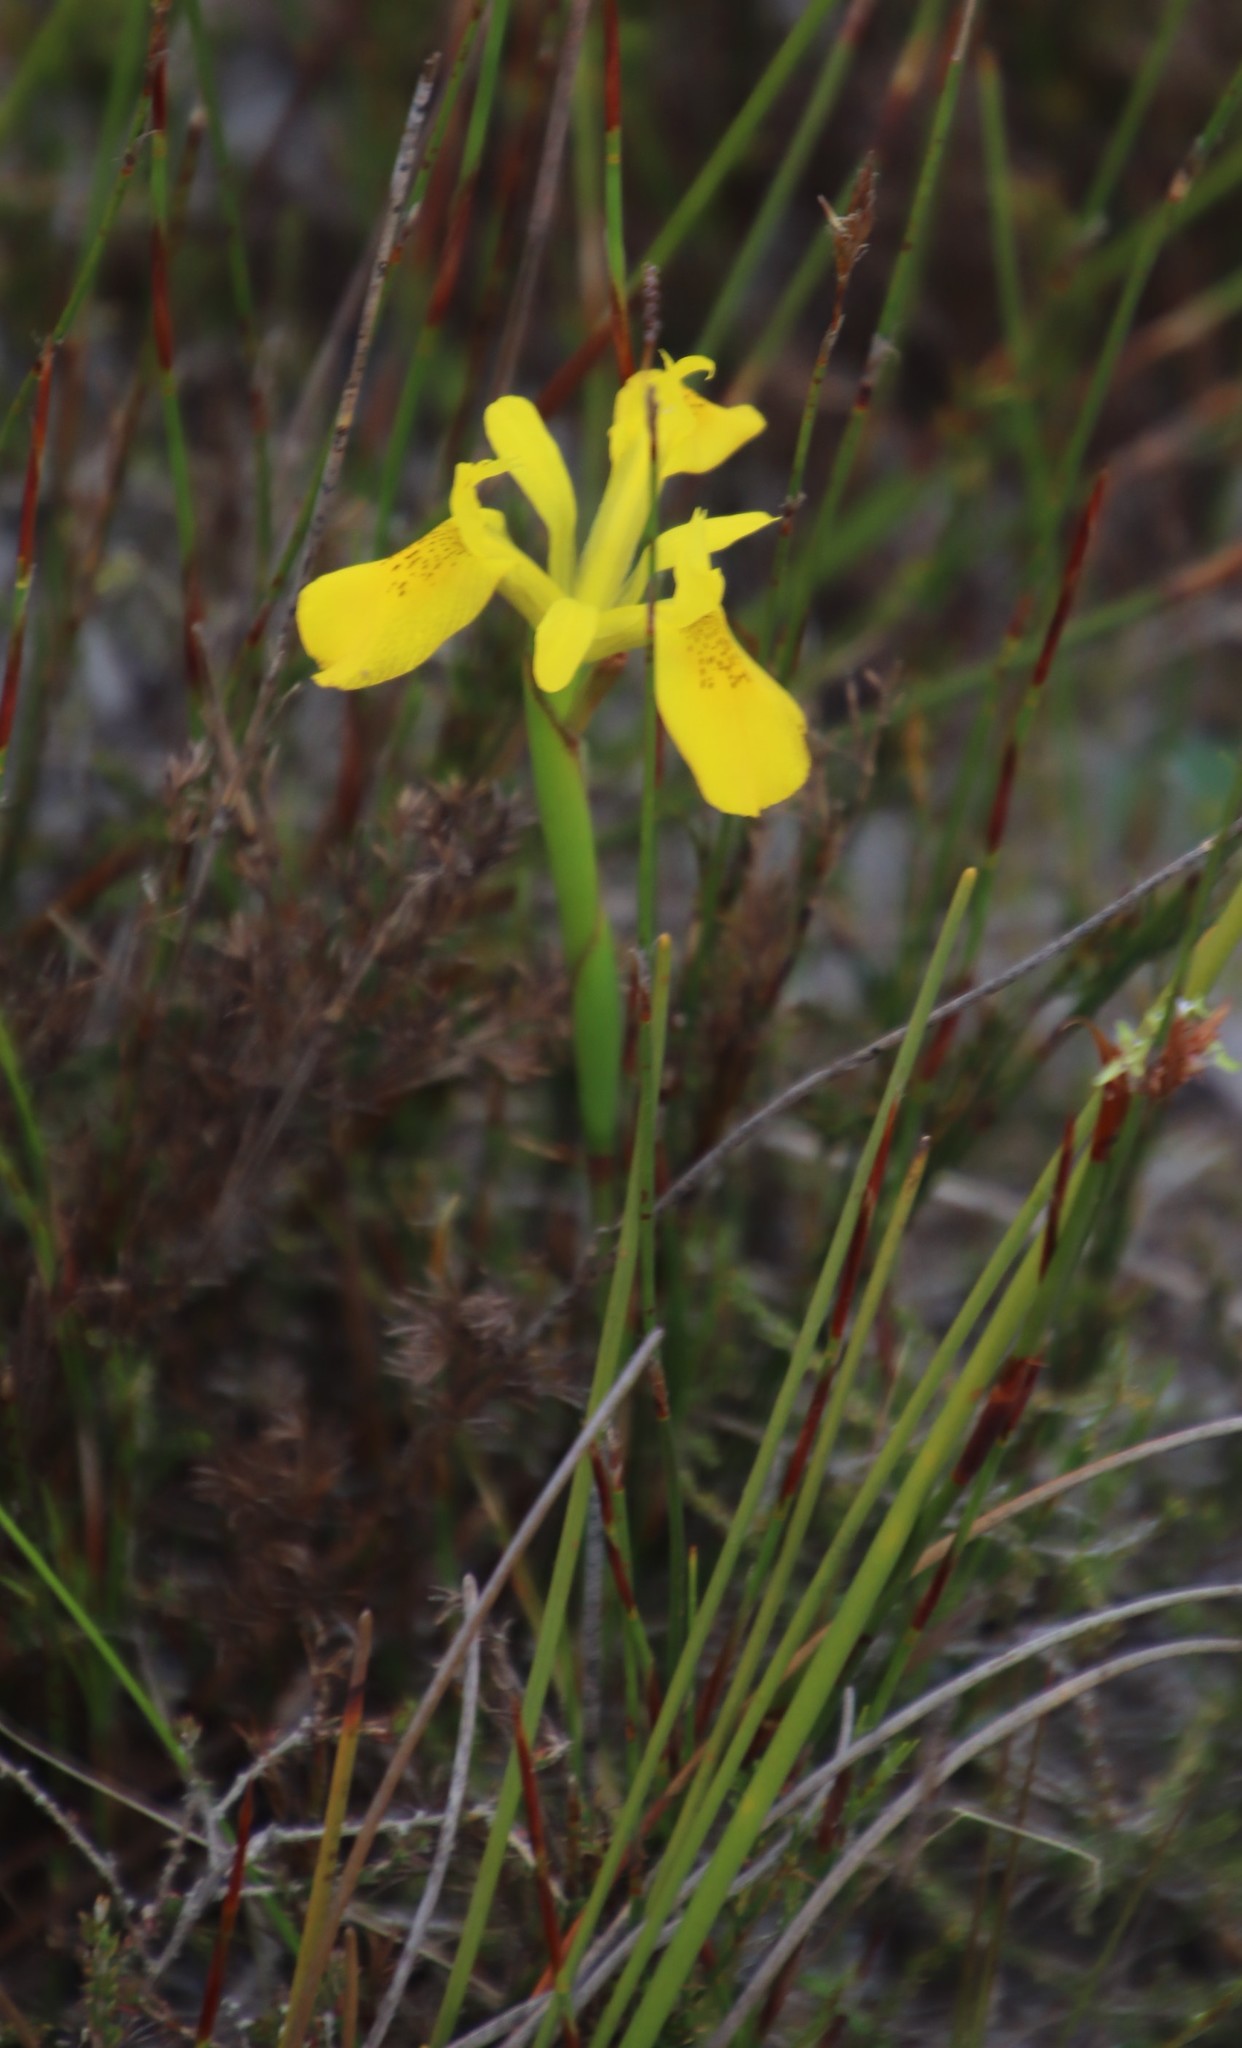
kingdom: Plantae
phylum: Tracheophyta
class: Liliopsida
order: Asparagales
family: Iridaceae
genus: Moraea
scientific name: Moraea neglecta
